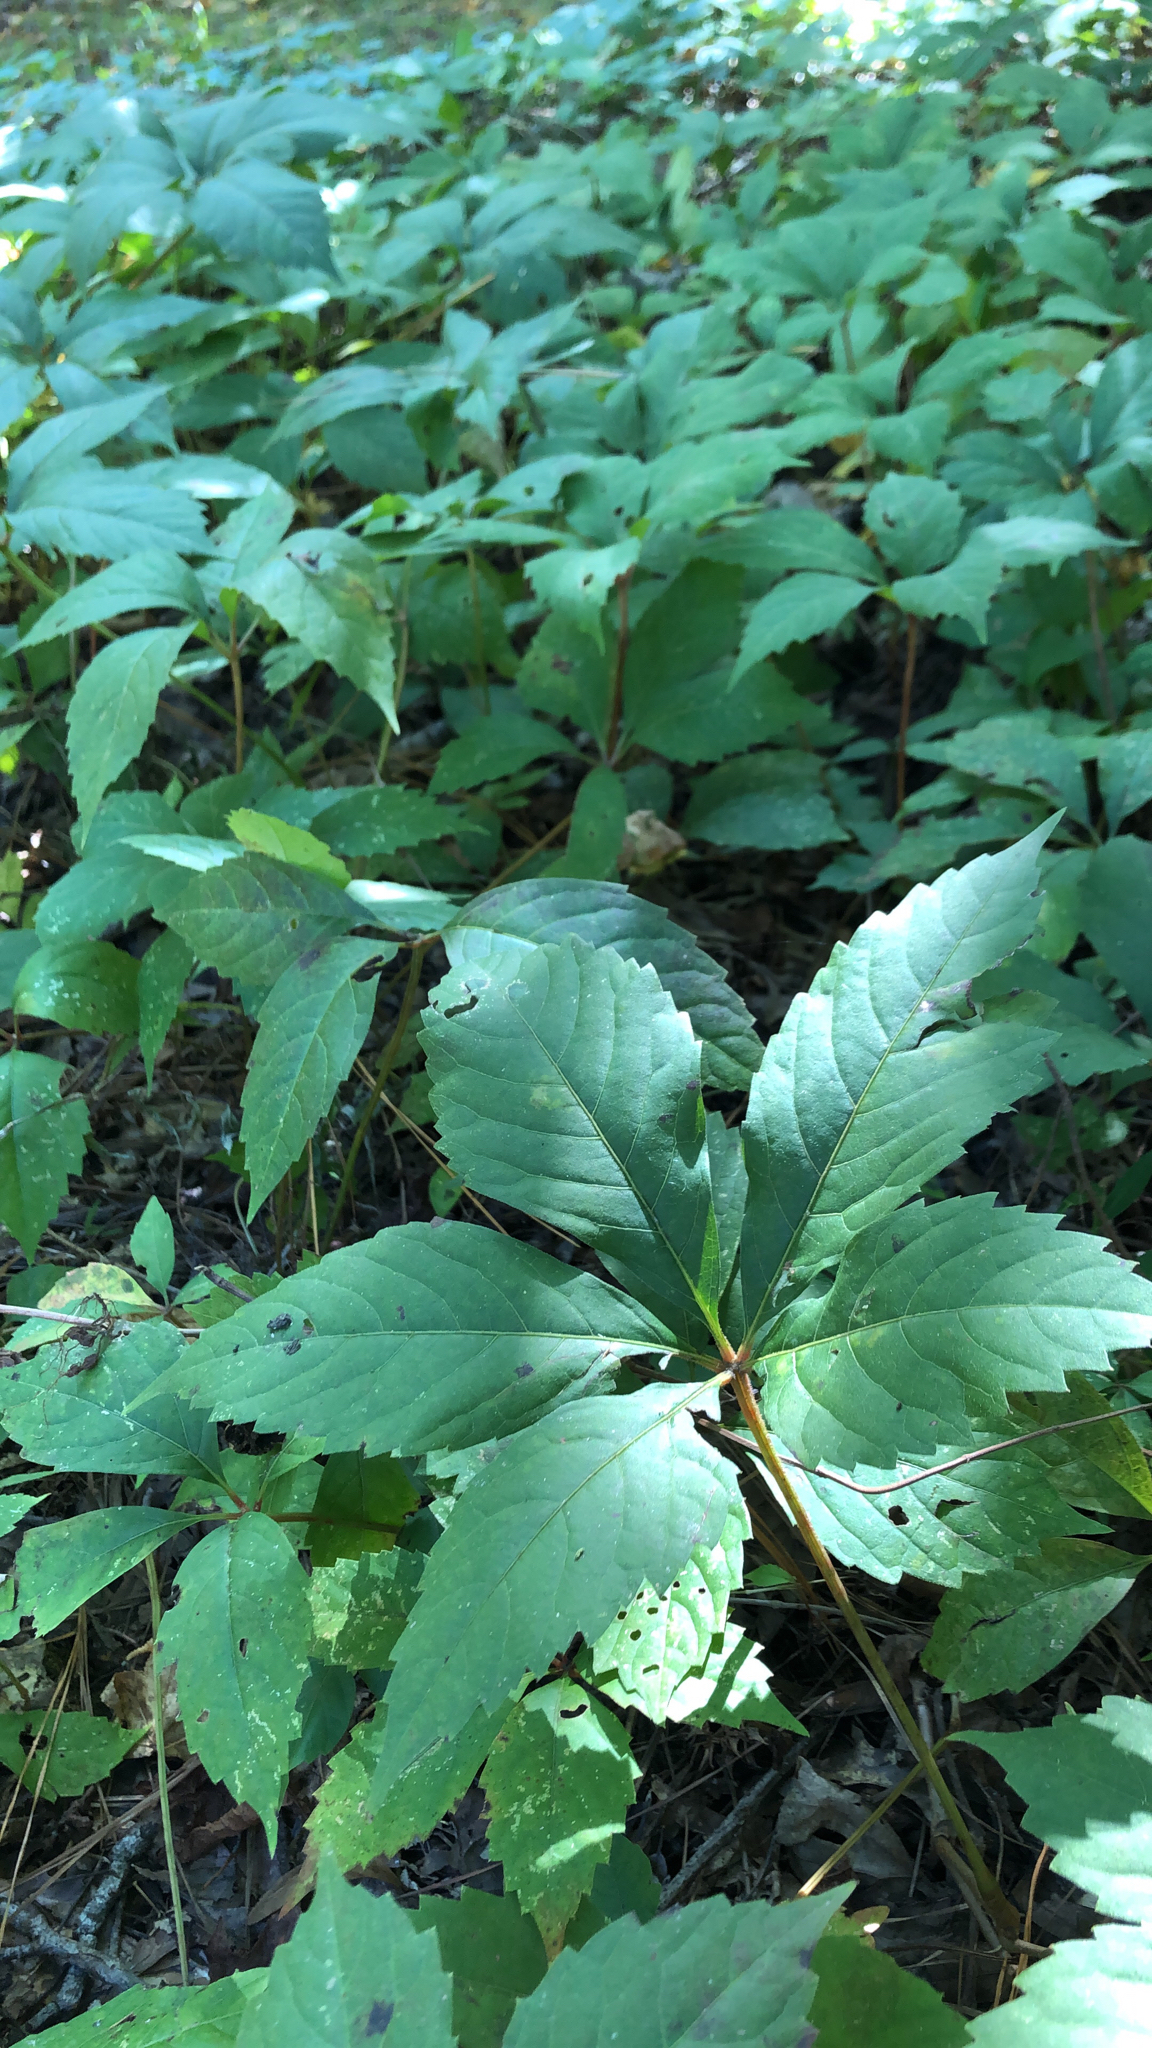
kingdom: Plantae
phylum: Tracheophyta
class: Magnoliopsida
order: Vitales
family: Vitaceae
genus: Parthenocissus
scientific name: Parthenocissus quinquefolia
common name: Virginia-creeper
